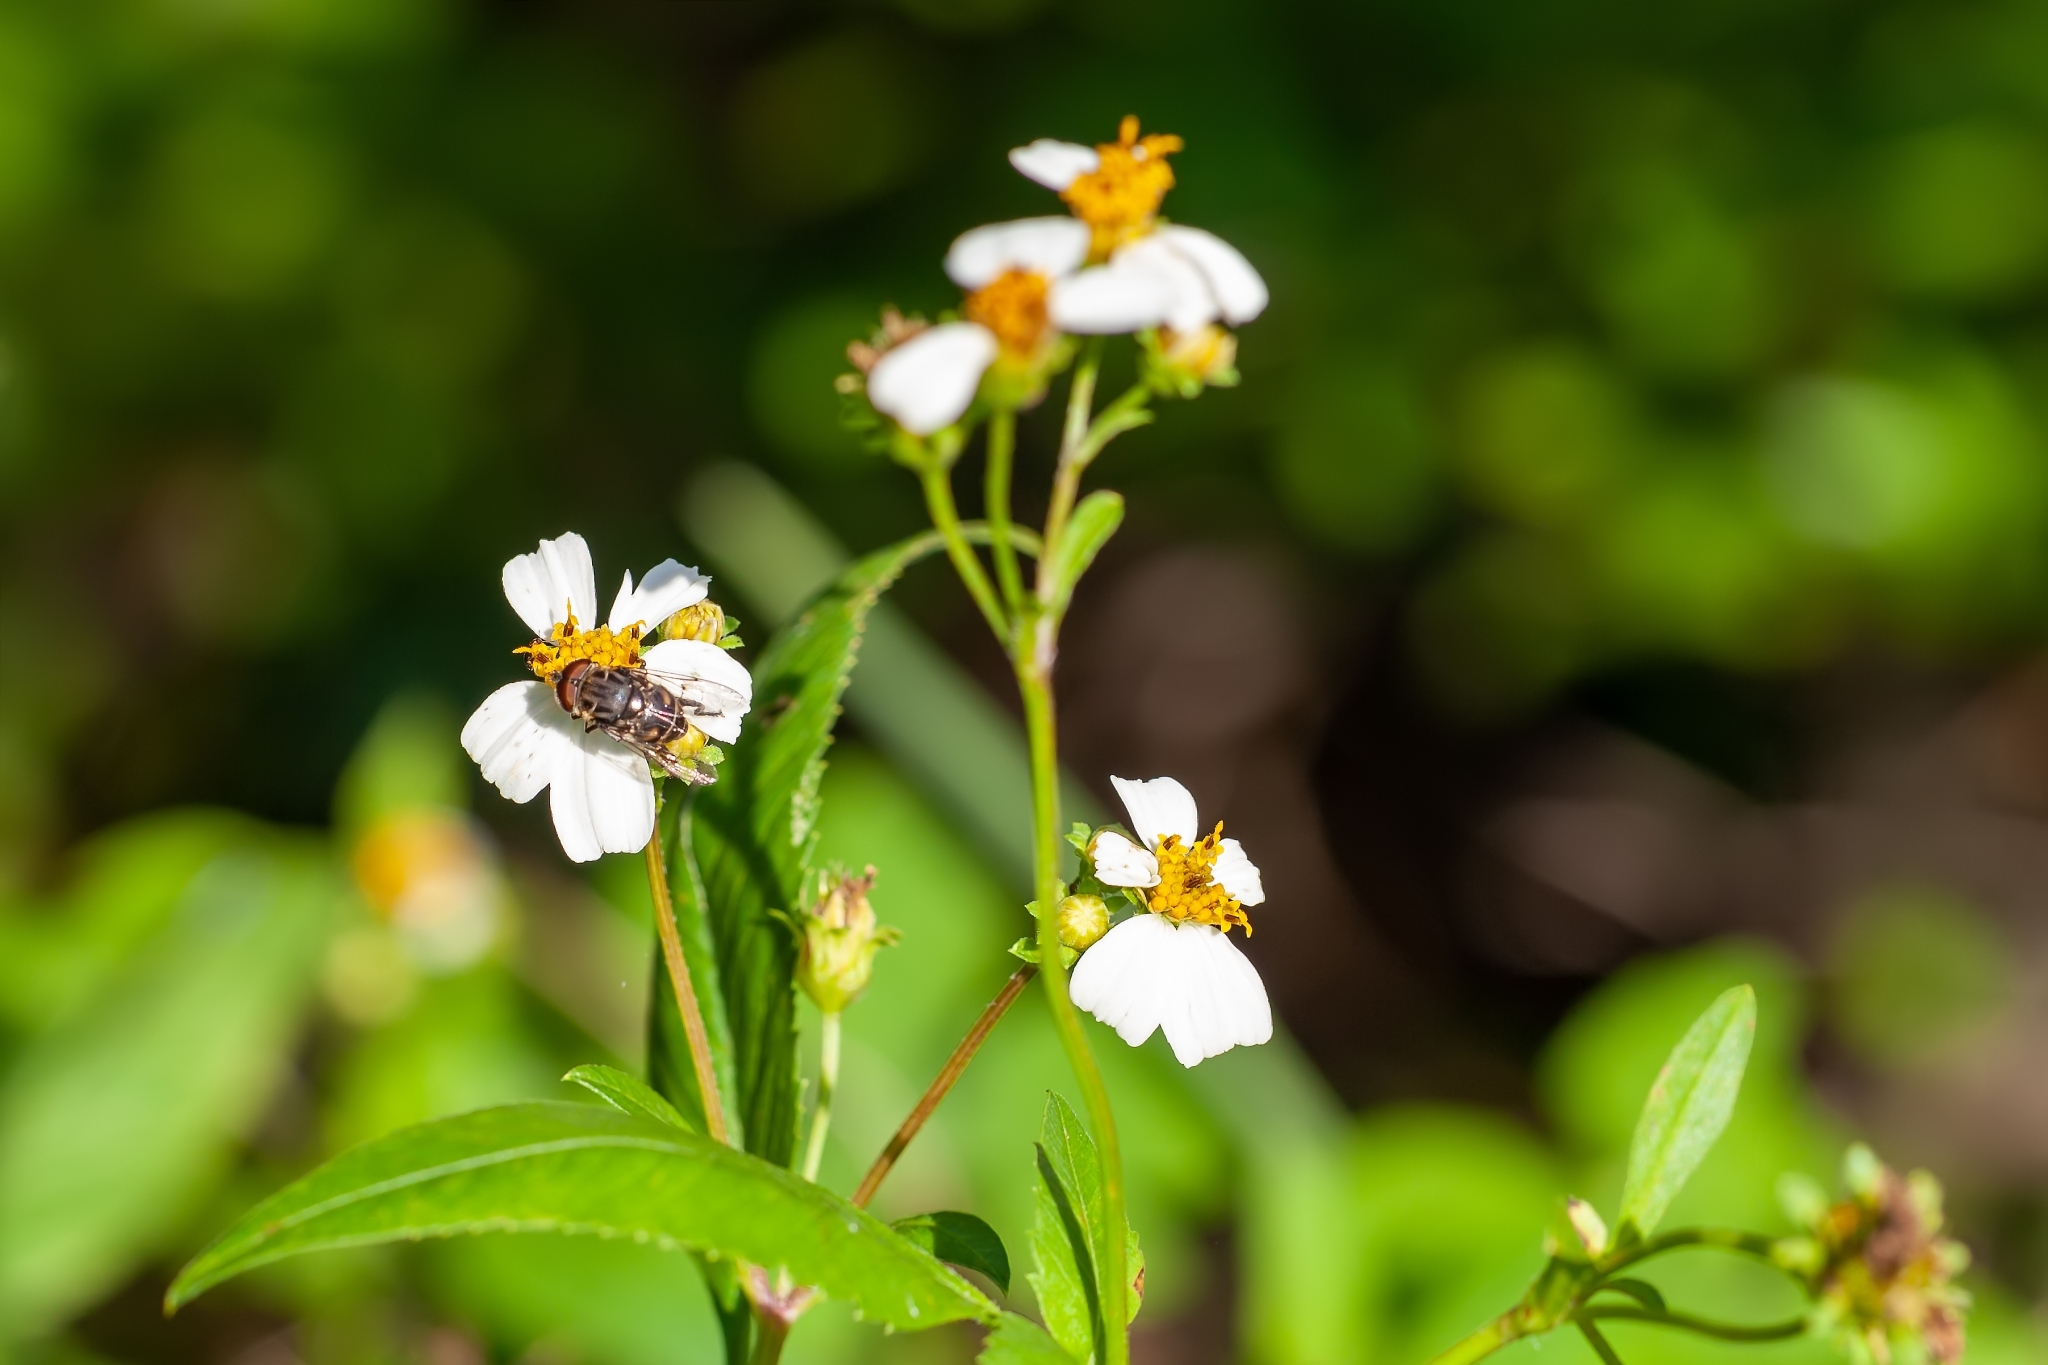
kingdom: Animalia
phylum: Arthropoda
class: Insecta
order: Diptera
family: Syrphidae
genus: Palpada
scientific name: Palpada furcata
